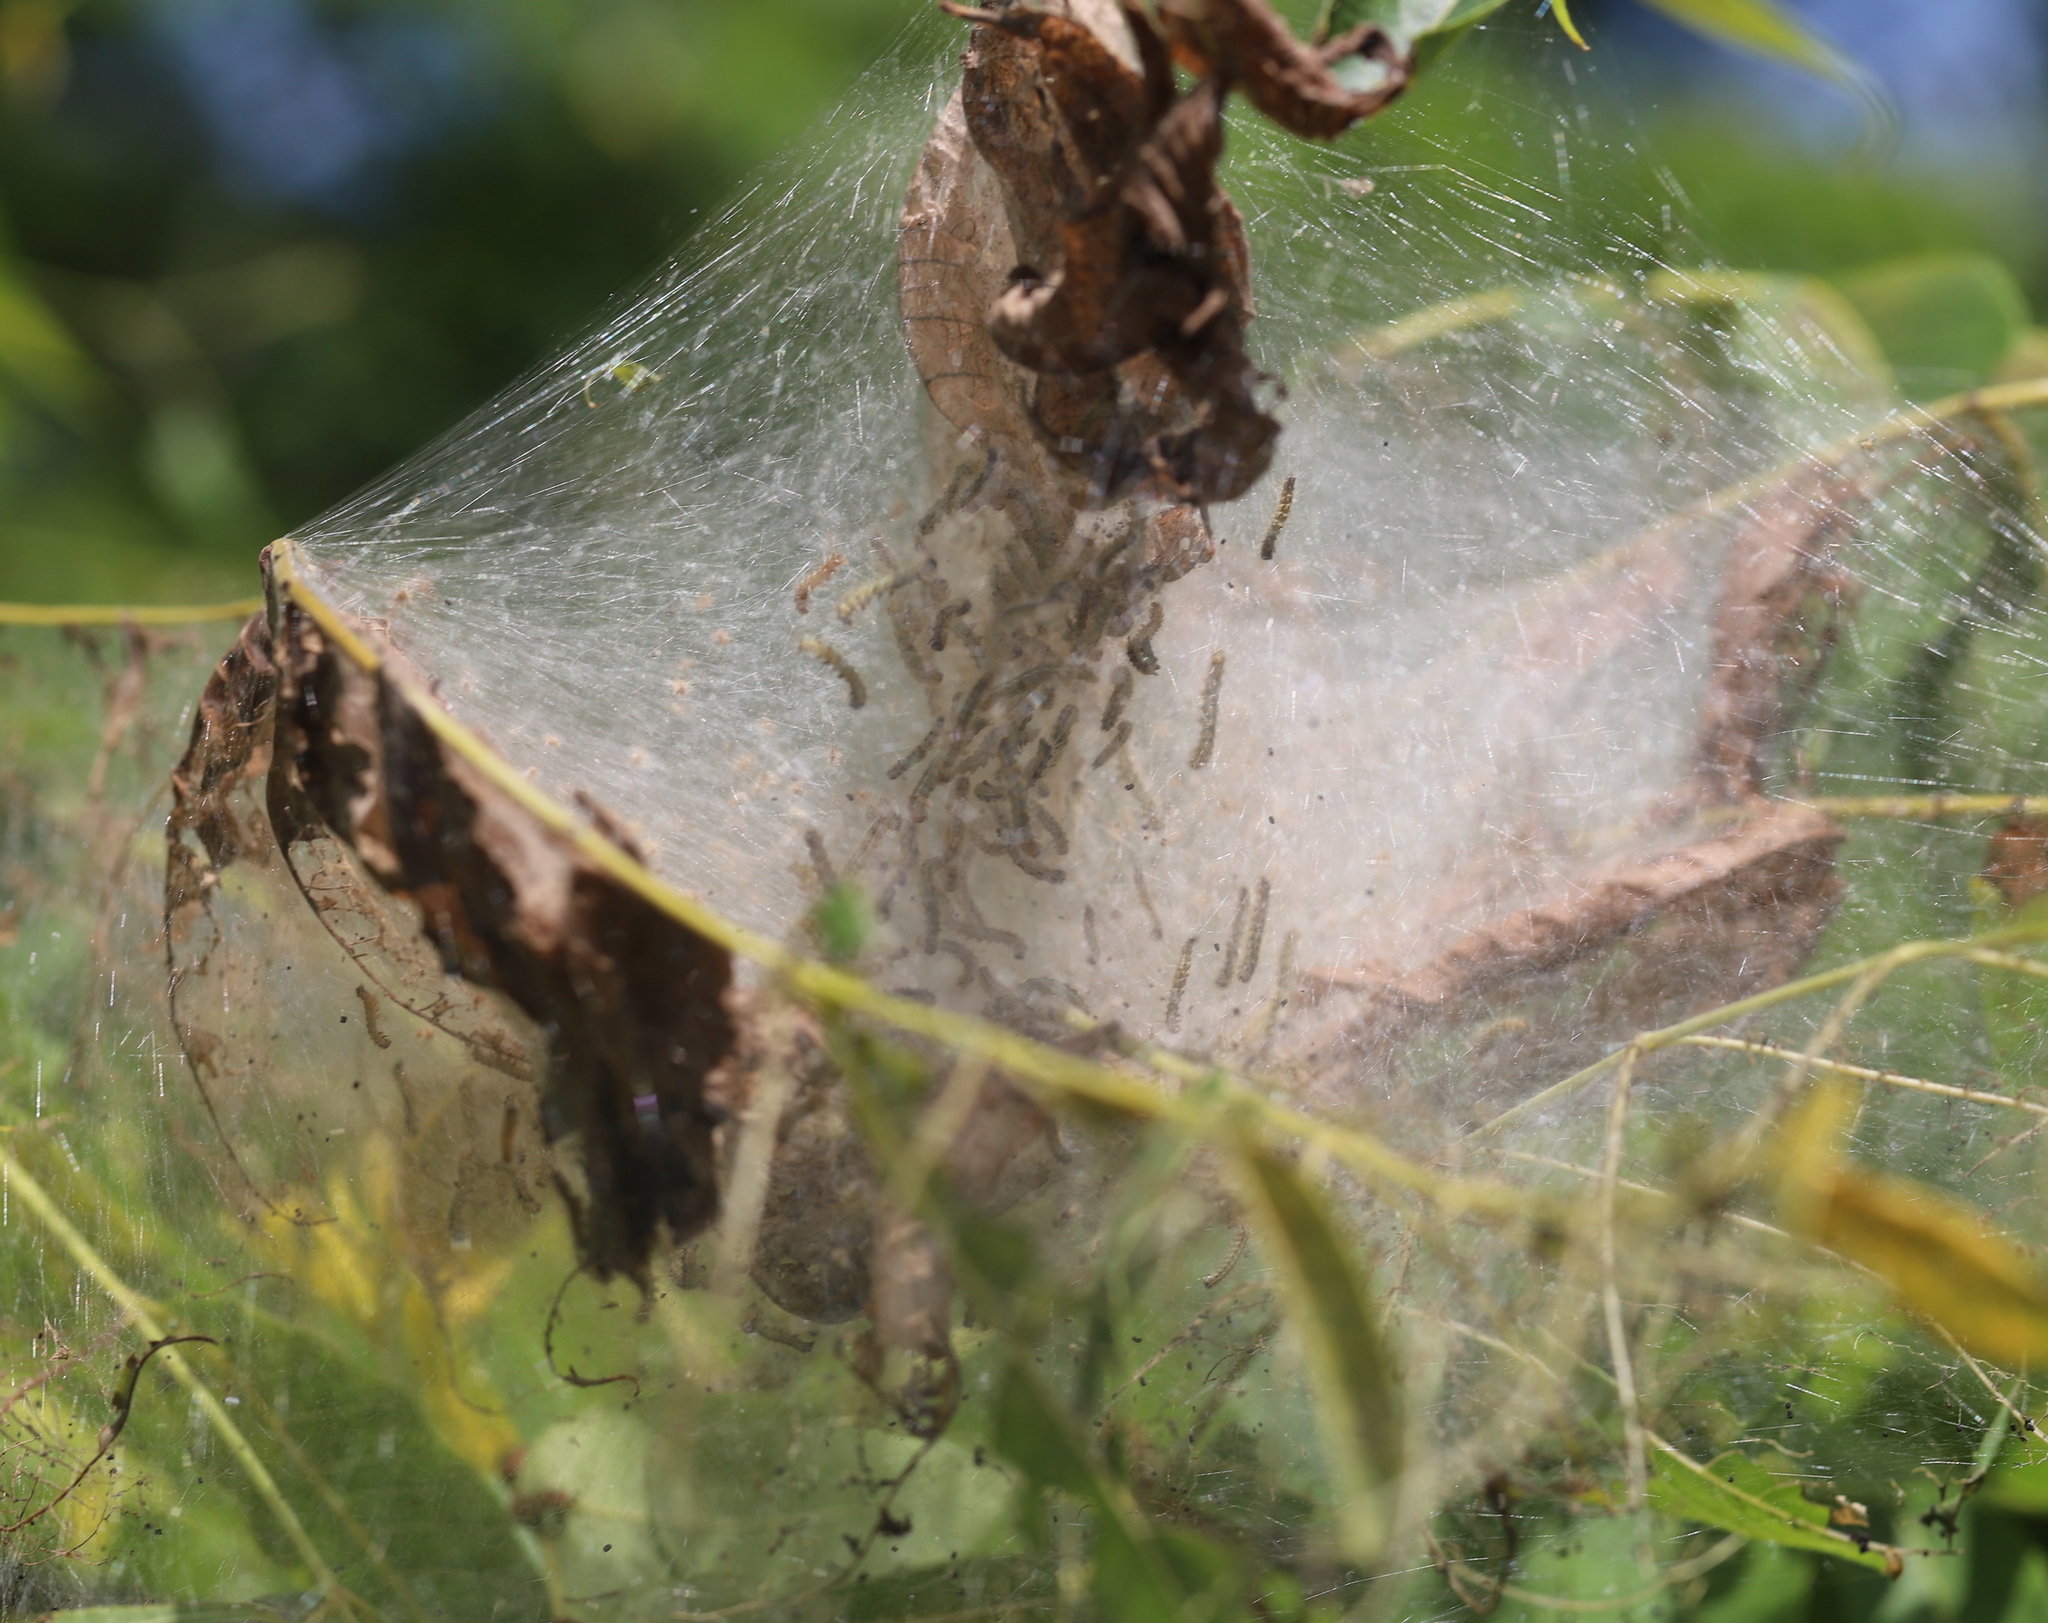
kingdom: Animalia
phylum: Arthropoda
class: Insecta
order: Lepidoptera
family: Erebidae
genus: Hyphantria
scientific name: Hyphantria cunea
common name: American white moth
